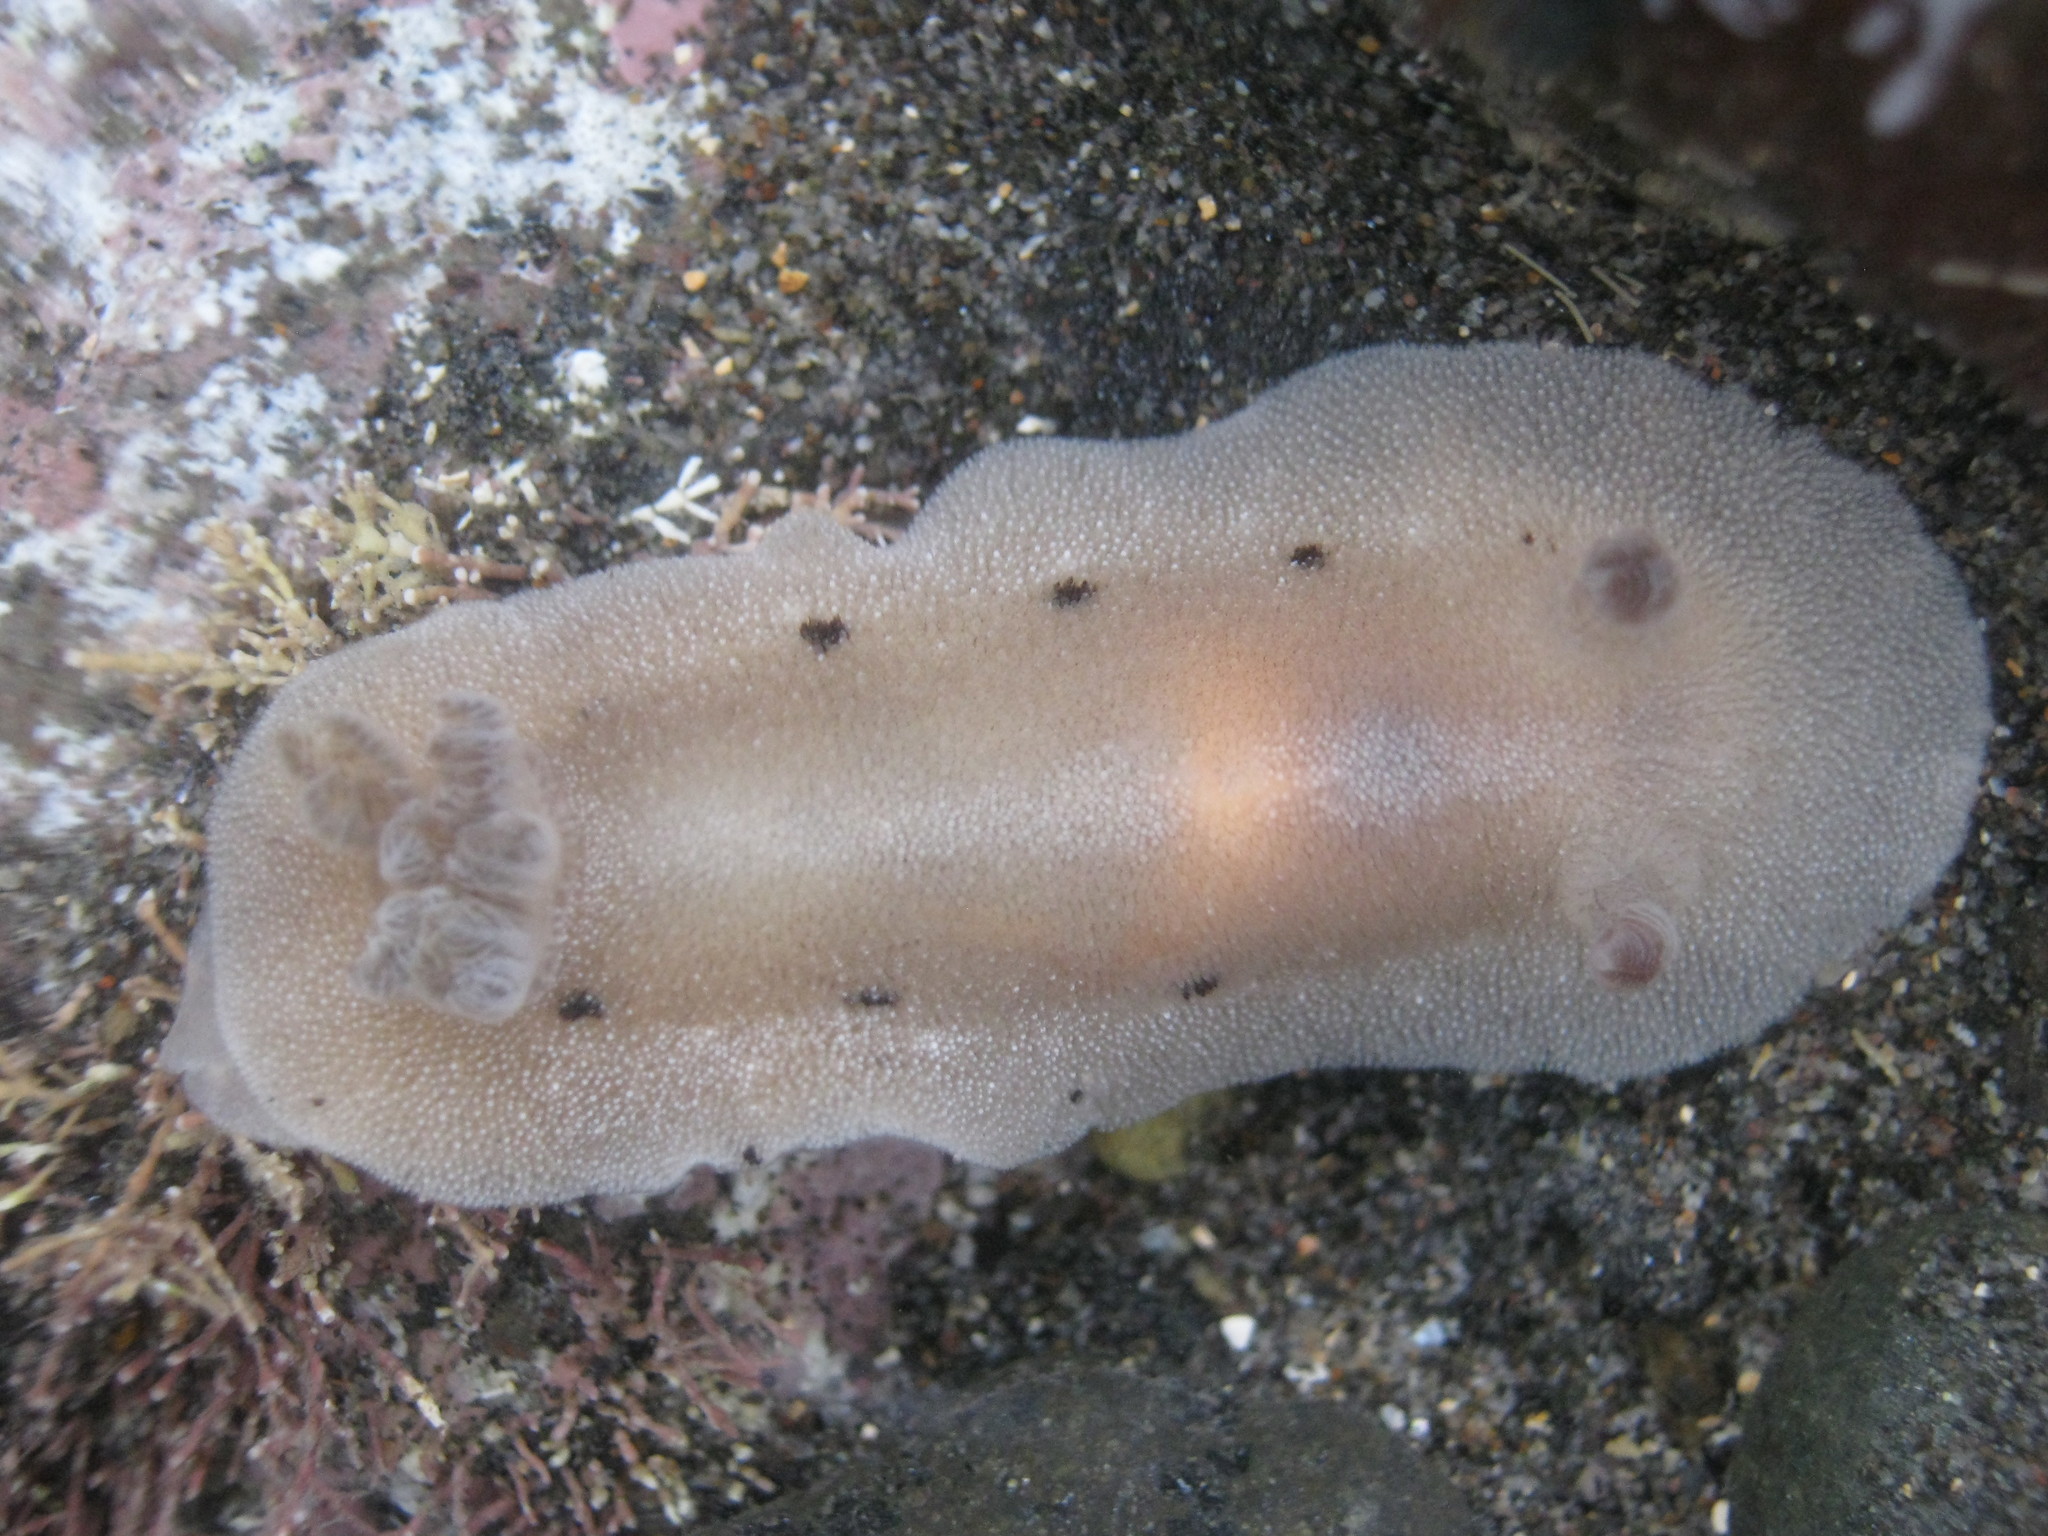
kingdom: Animalia
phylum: Mollusca
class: Gastropoda
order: Nudibranchia
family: Discodorididae
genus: Alloiodoris
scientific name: Alloiodoris lanuginata
